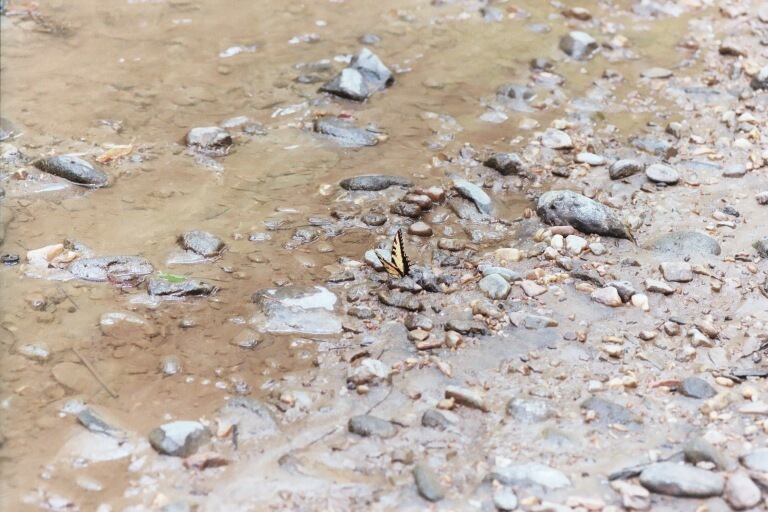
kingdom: Animalia
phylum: Arthropoda
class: Insecta
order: Lepidoptera
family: Papilionidae
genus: Papilio
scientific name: Papilio glaucus
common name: Tiger swallowtail
